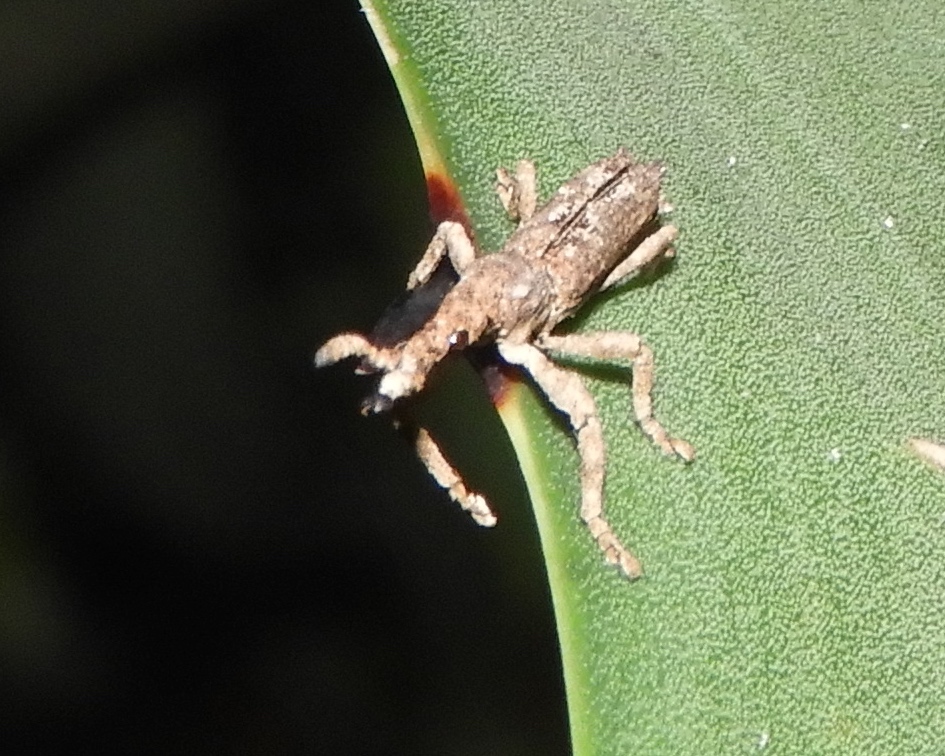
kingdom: Animalia
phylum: Arthropoda
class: Insecta
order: Coleoptera
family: Brentidae
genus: Ulocerus
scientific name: Ulocerus mexicanus
